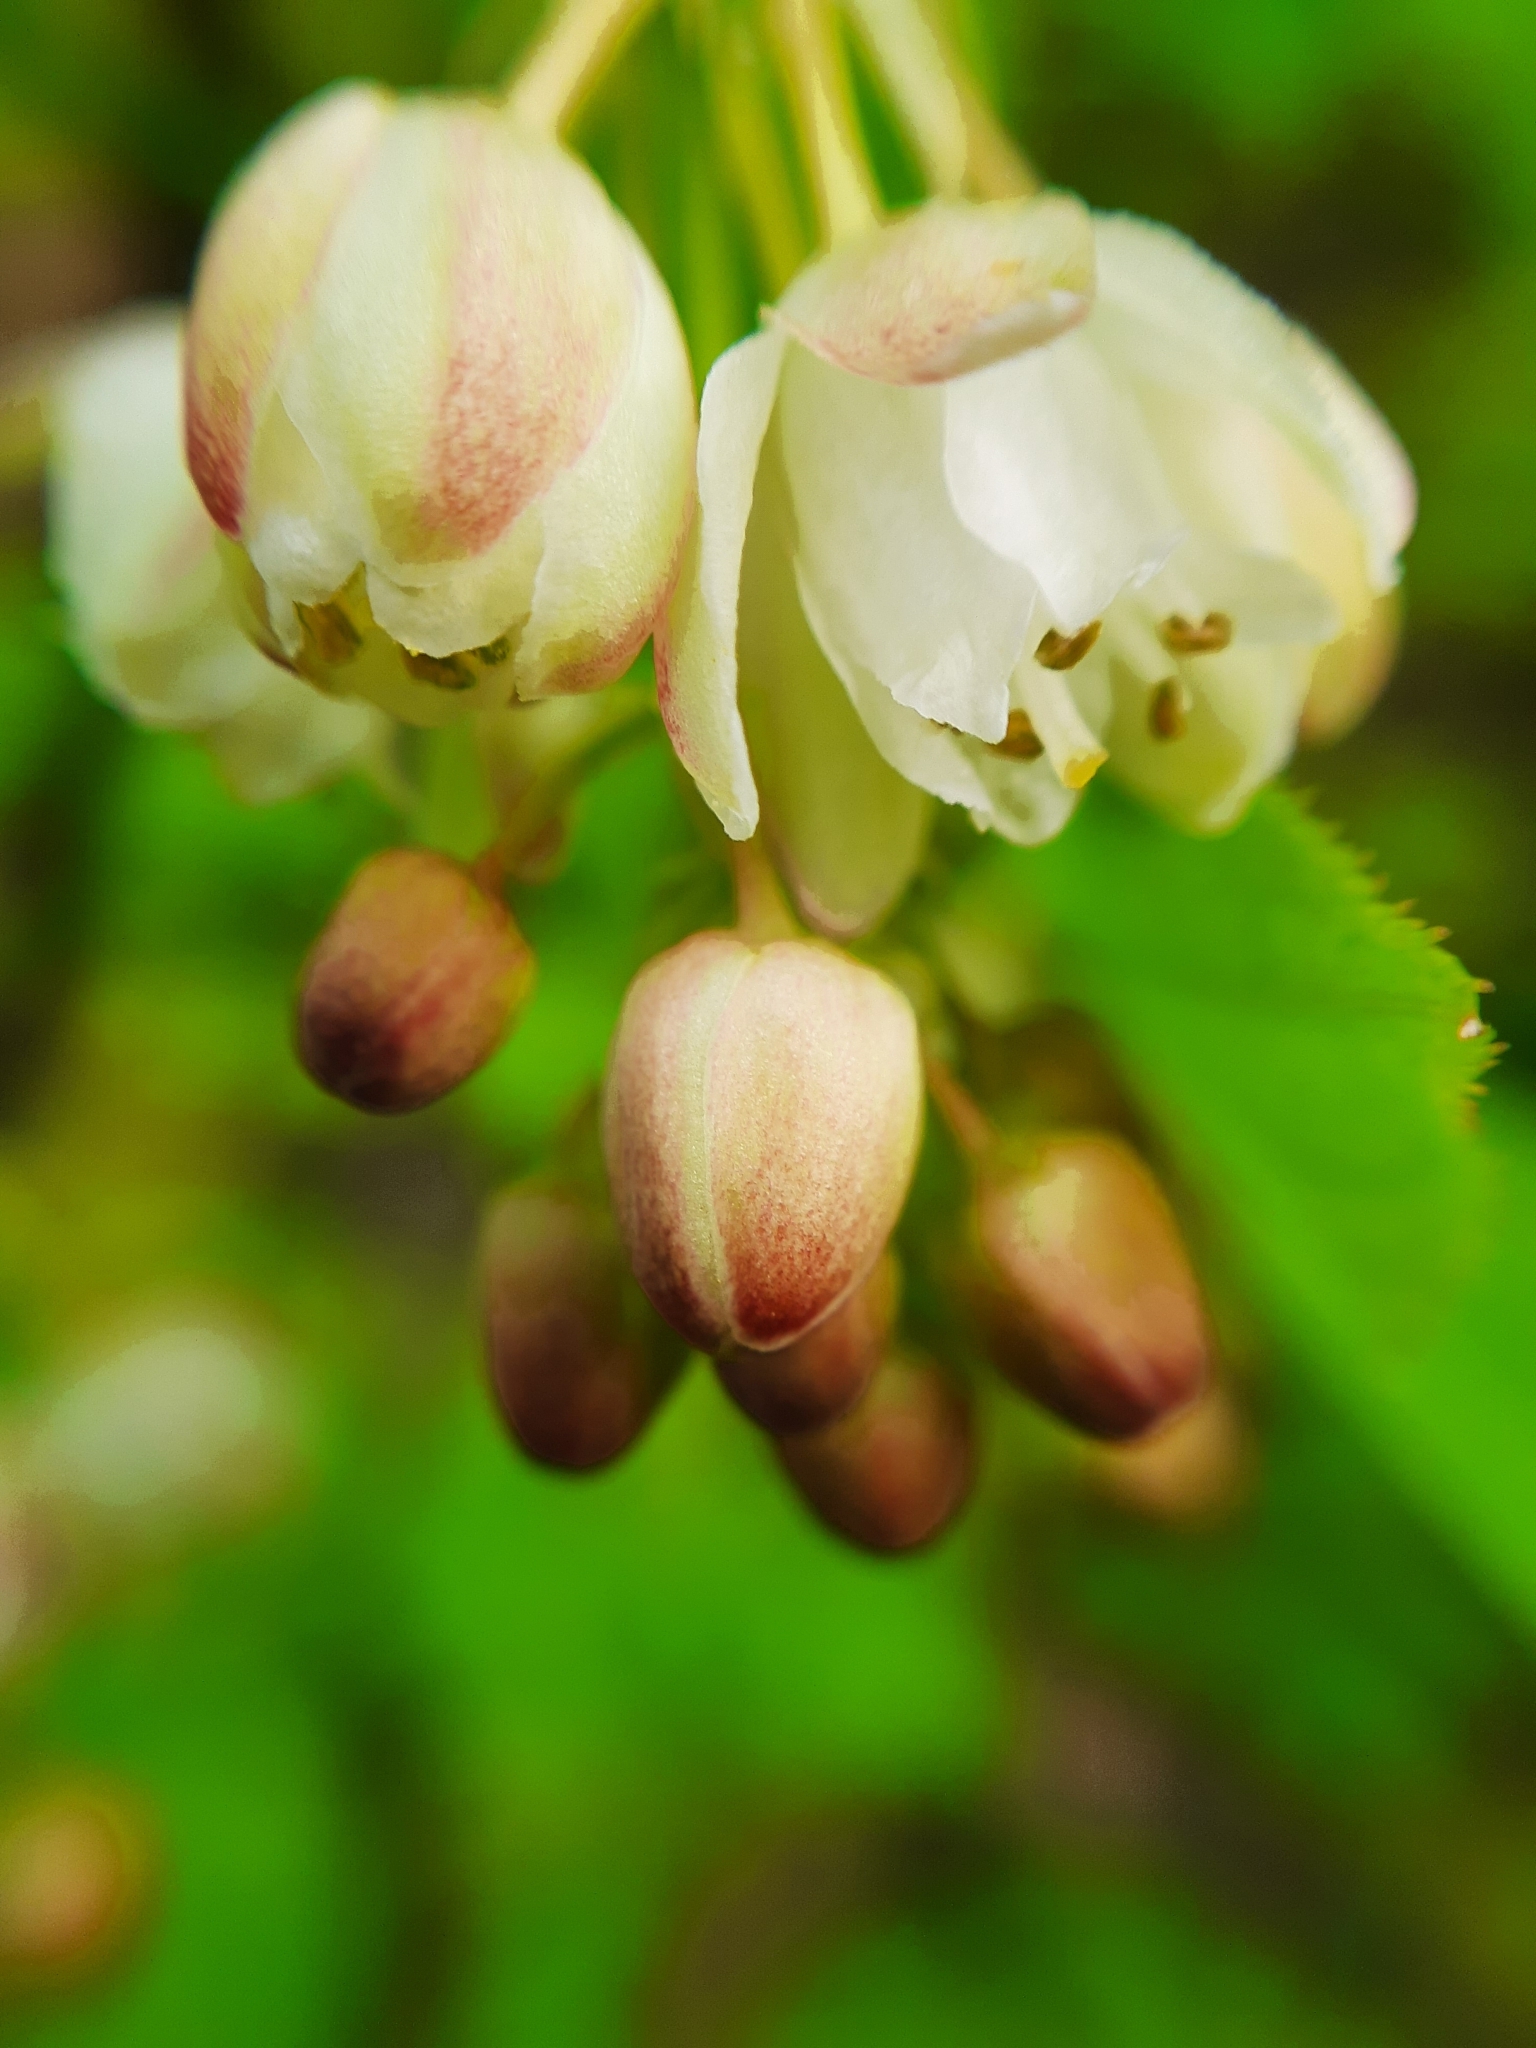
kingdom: Plantae
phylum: Tracheophyta
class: Magnoliopsida
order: Crossosomatales
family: Staphyleaceae
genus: Staphylea
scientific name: Staphylea pinnata
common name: Bladdernut
